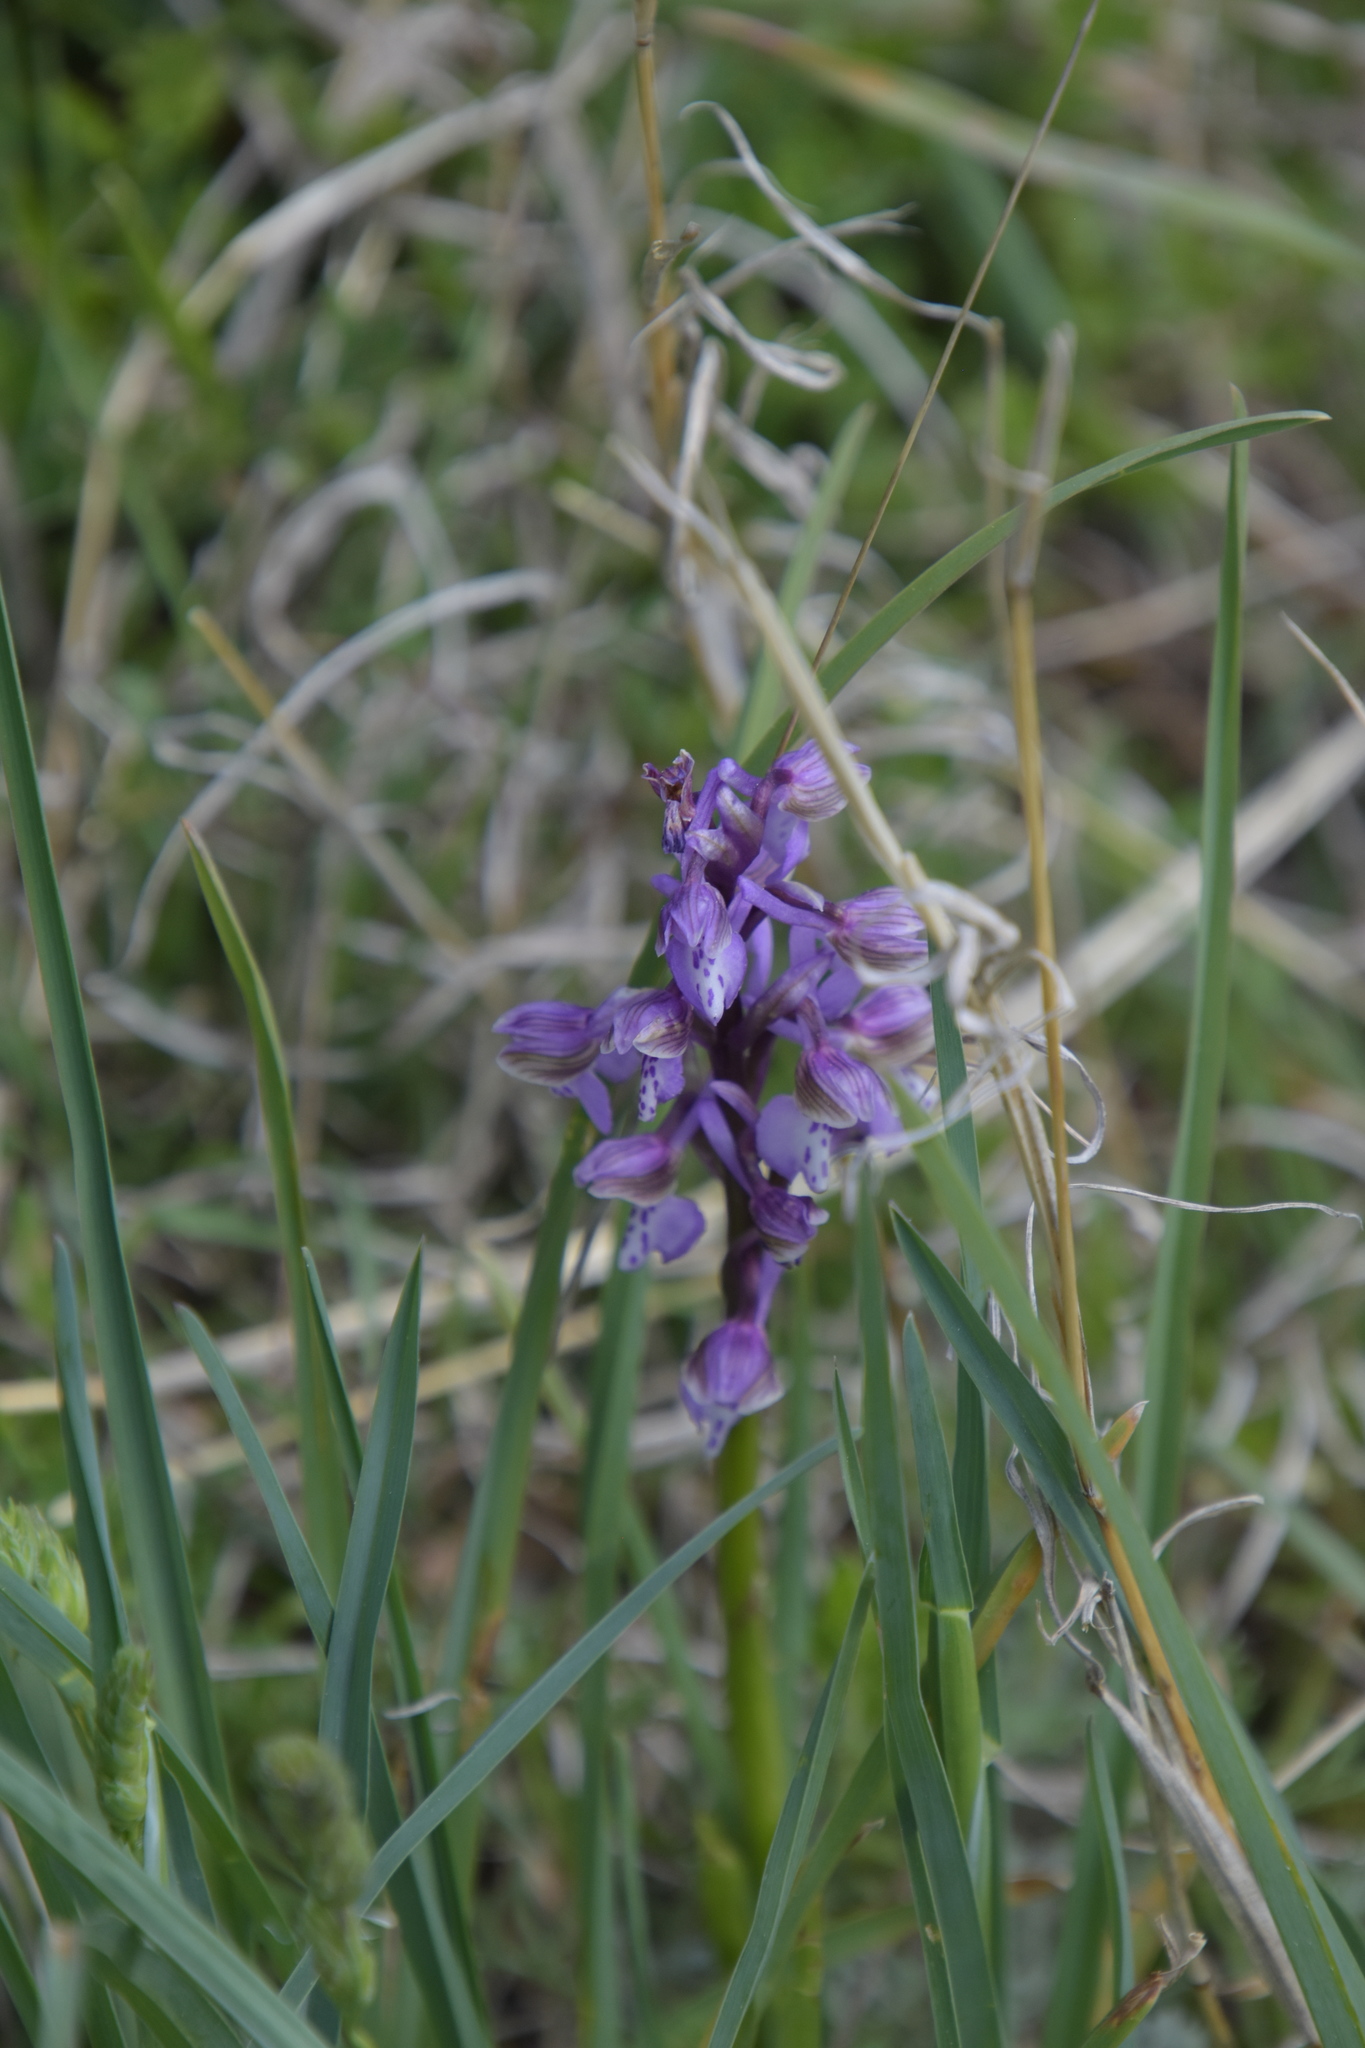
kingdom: Plantae
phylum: Tracheophyta
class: Liliopsida
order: Asparagales
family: Orchidaceae
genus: Anacamptis
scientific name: Anacamptis morio
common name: Green-winged orchid
